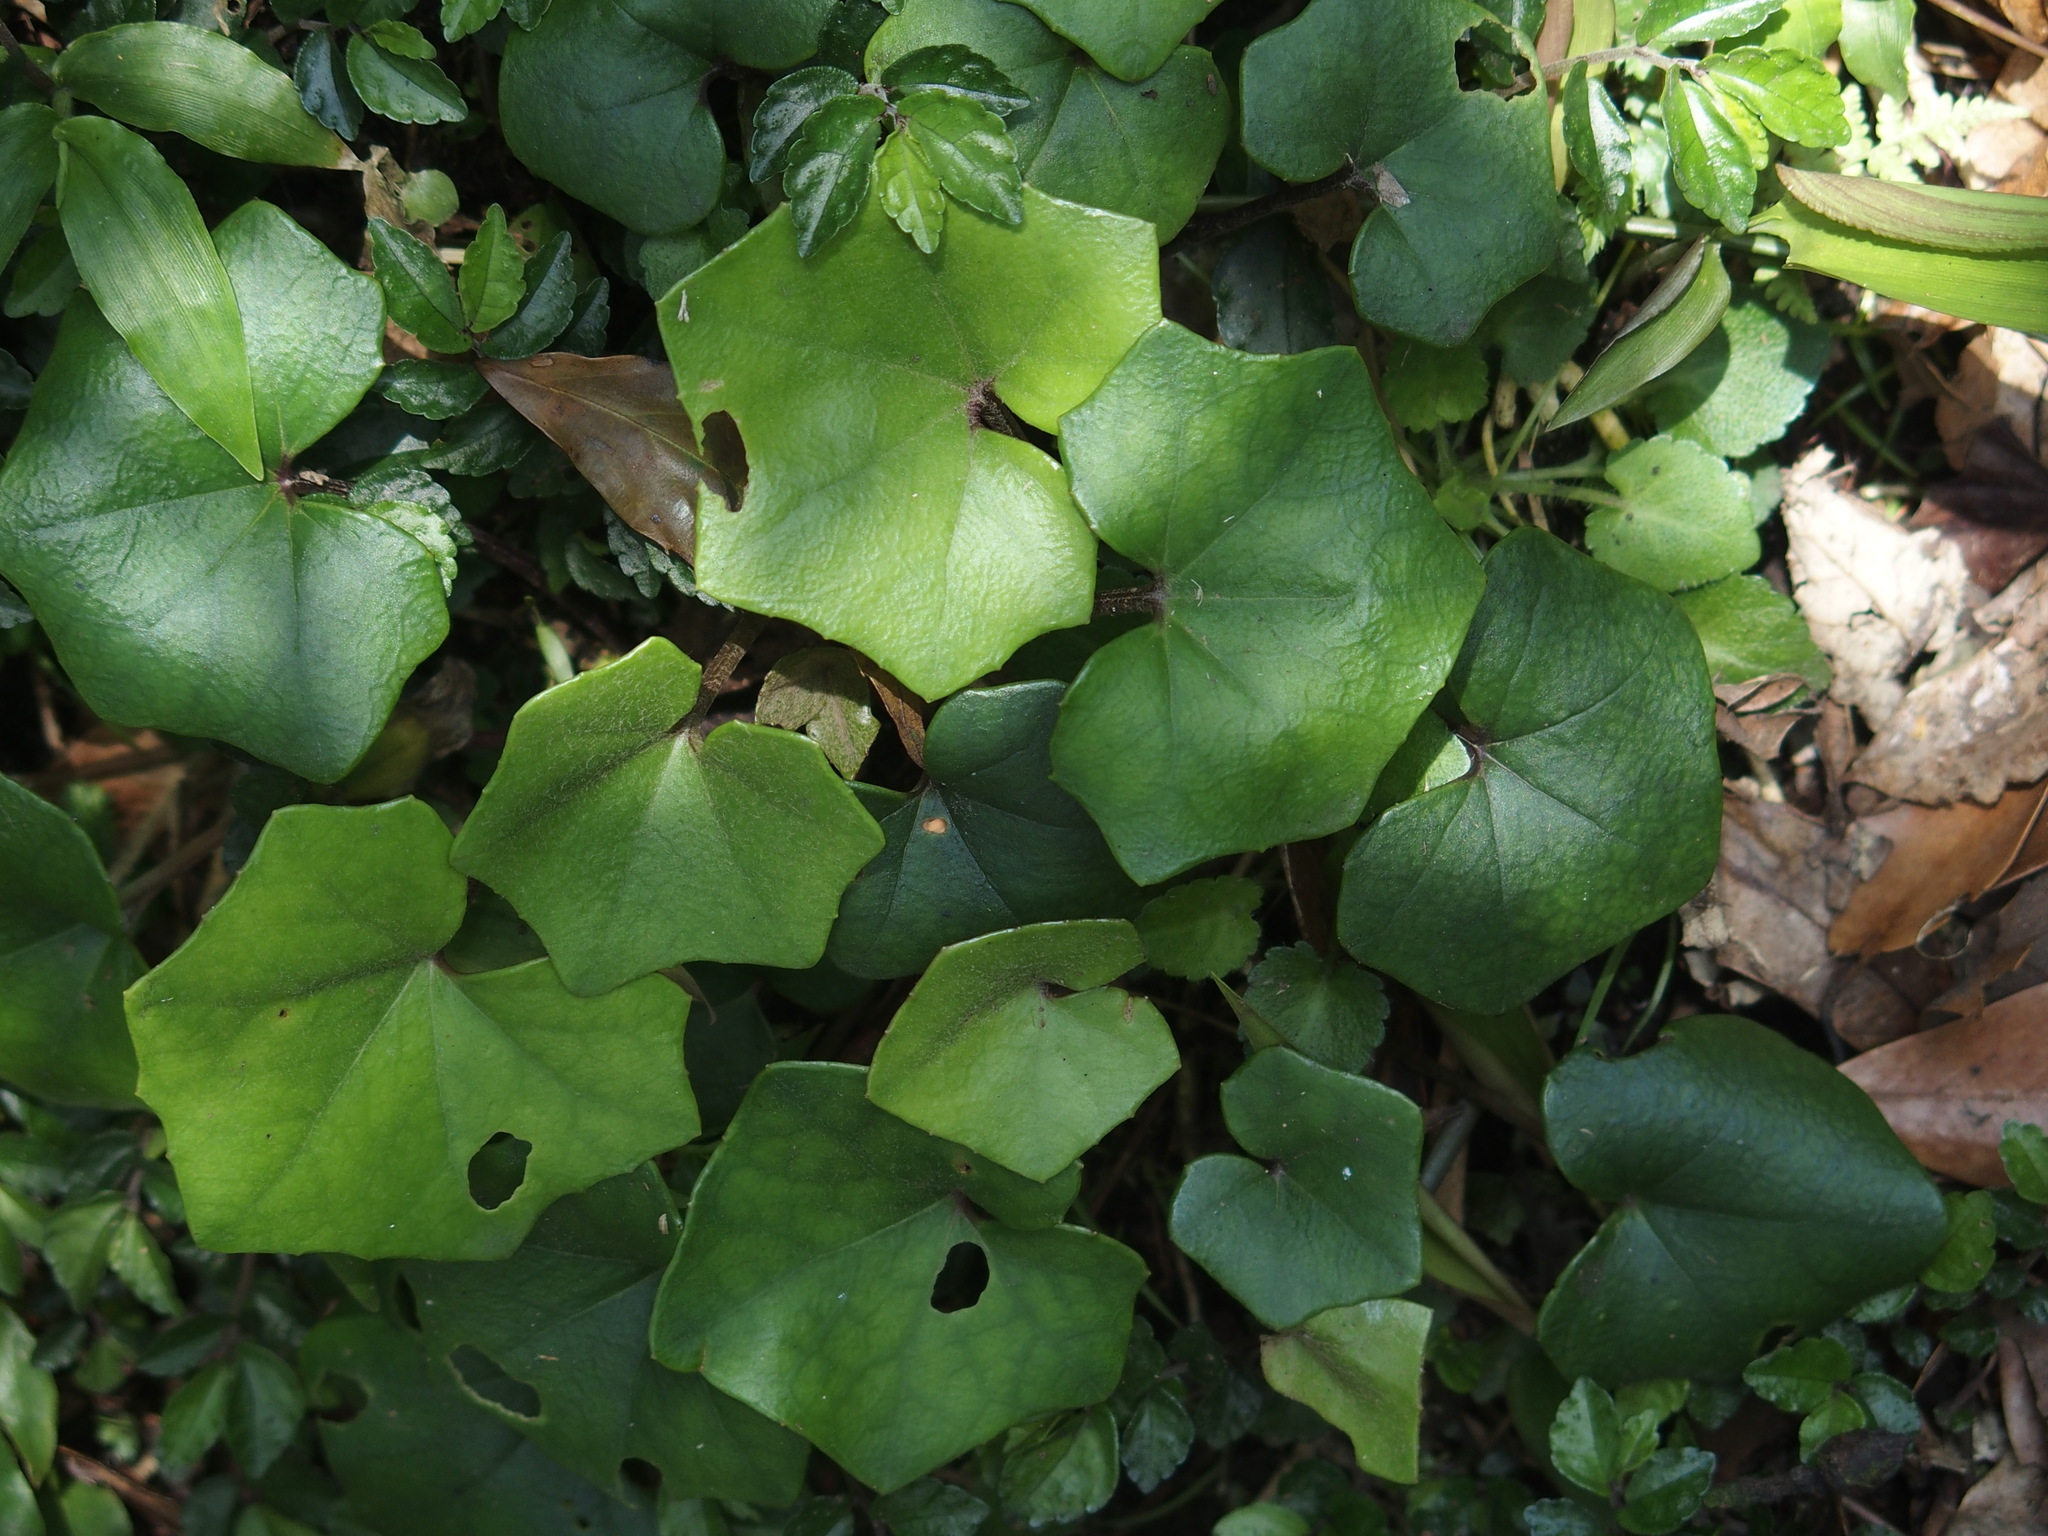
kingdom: Plantae
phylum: Tracheophyta
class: Magnoliopsida
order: Asterales
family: Asteraceae
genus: Farfugium
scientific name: Farfugium japonicum
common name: Leopardplant
